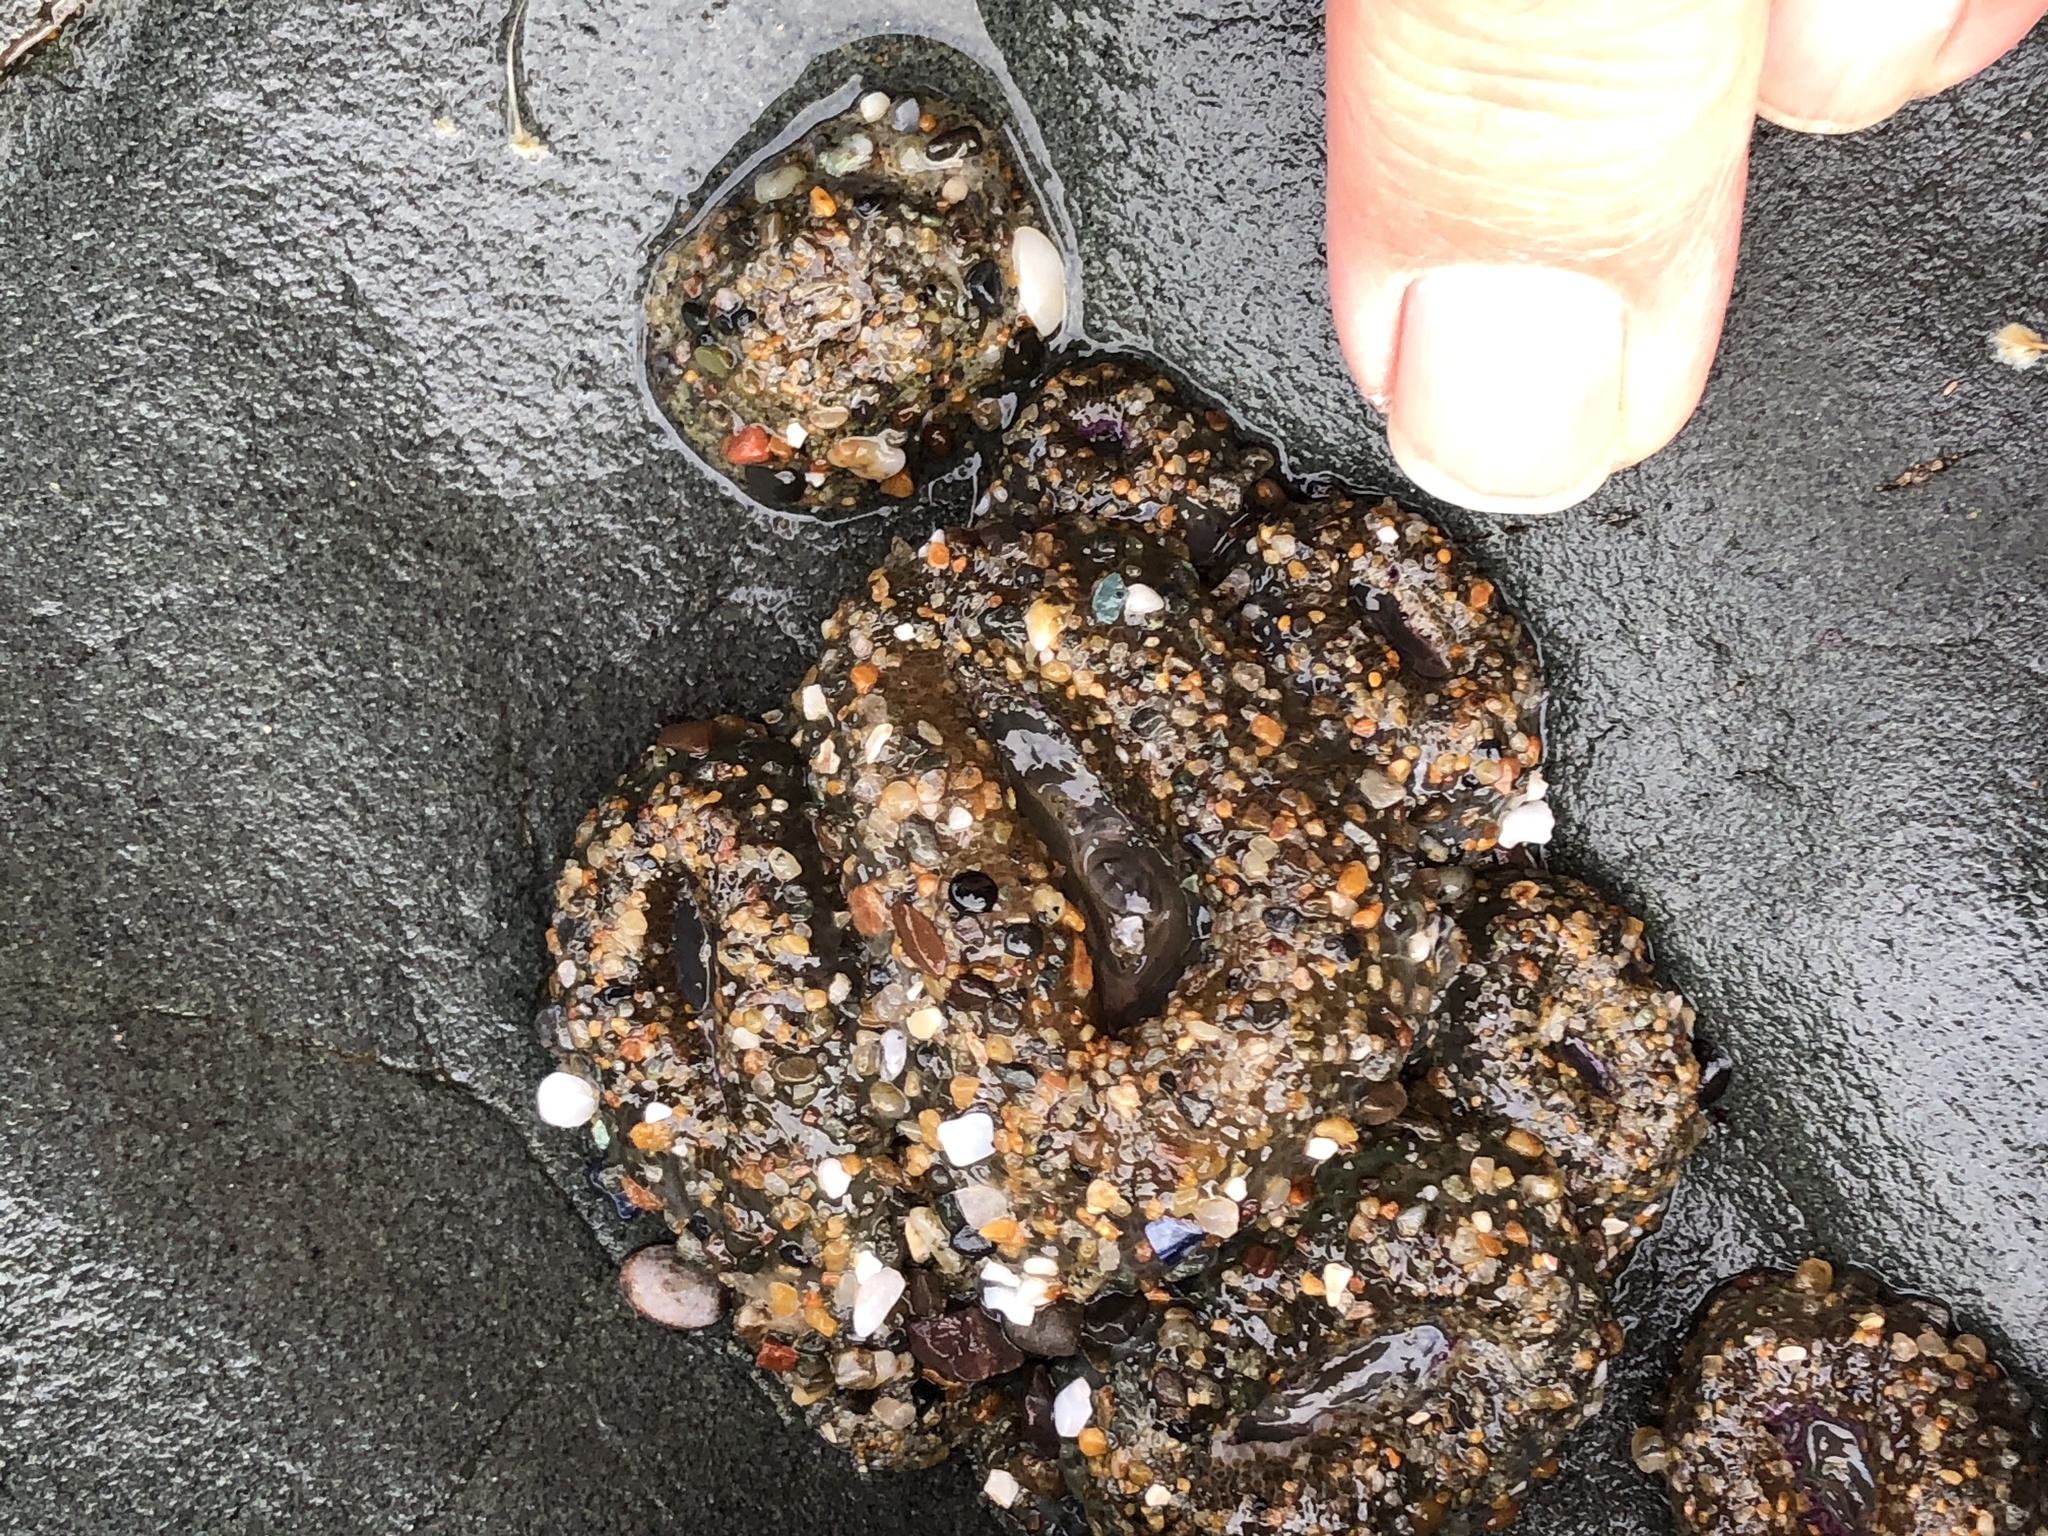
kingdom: Animalia
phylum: Cnidaria
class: Anthozoa
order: Actiniaria
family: Actiniidae
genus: Anthopleura
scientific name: Anthopleura elegantissima
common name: Clonal anemone
